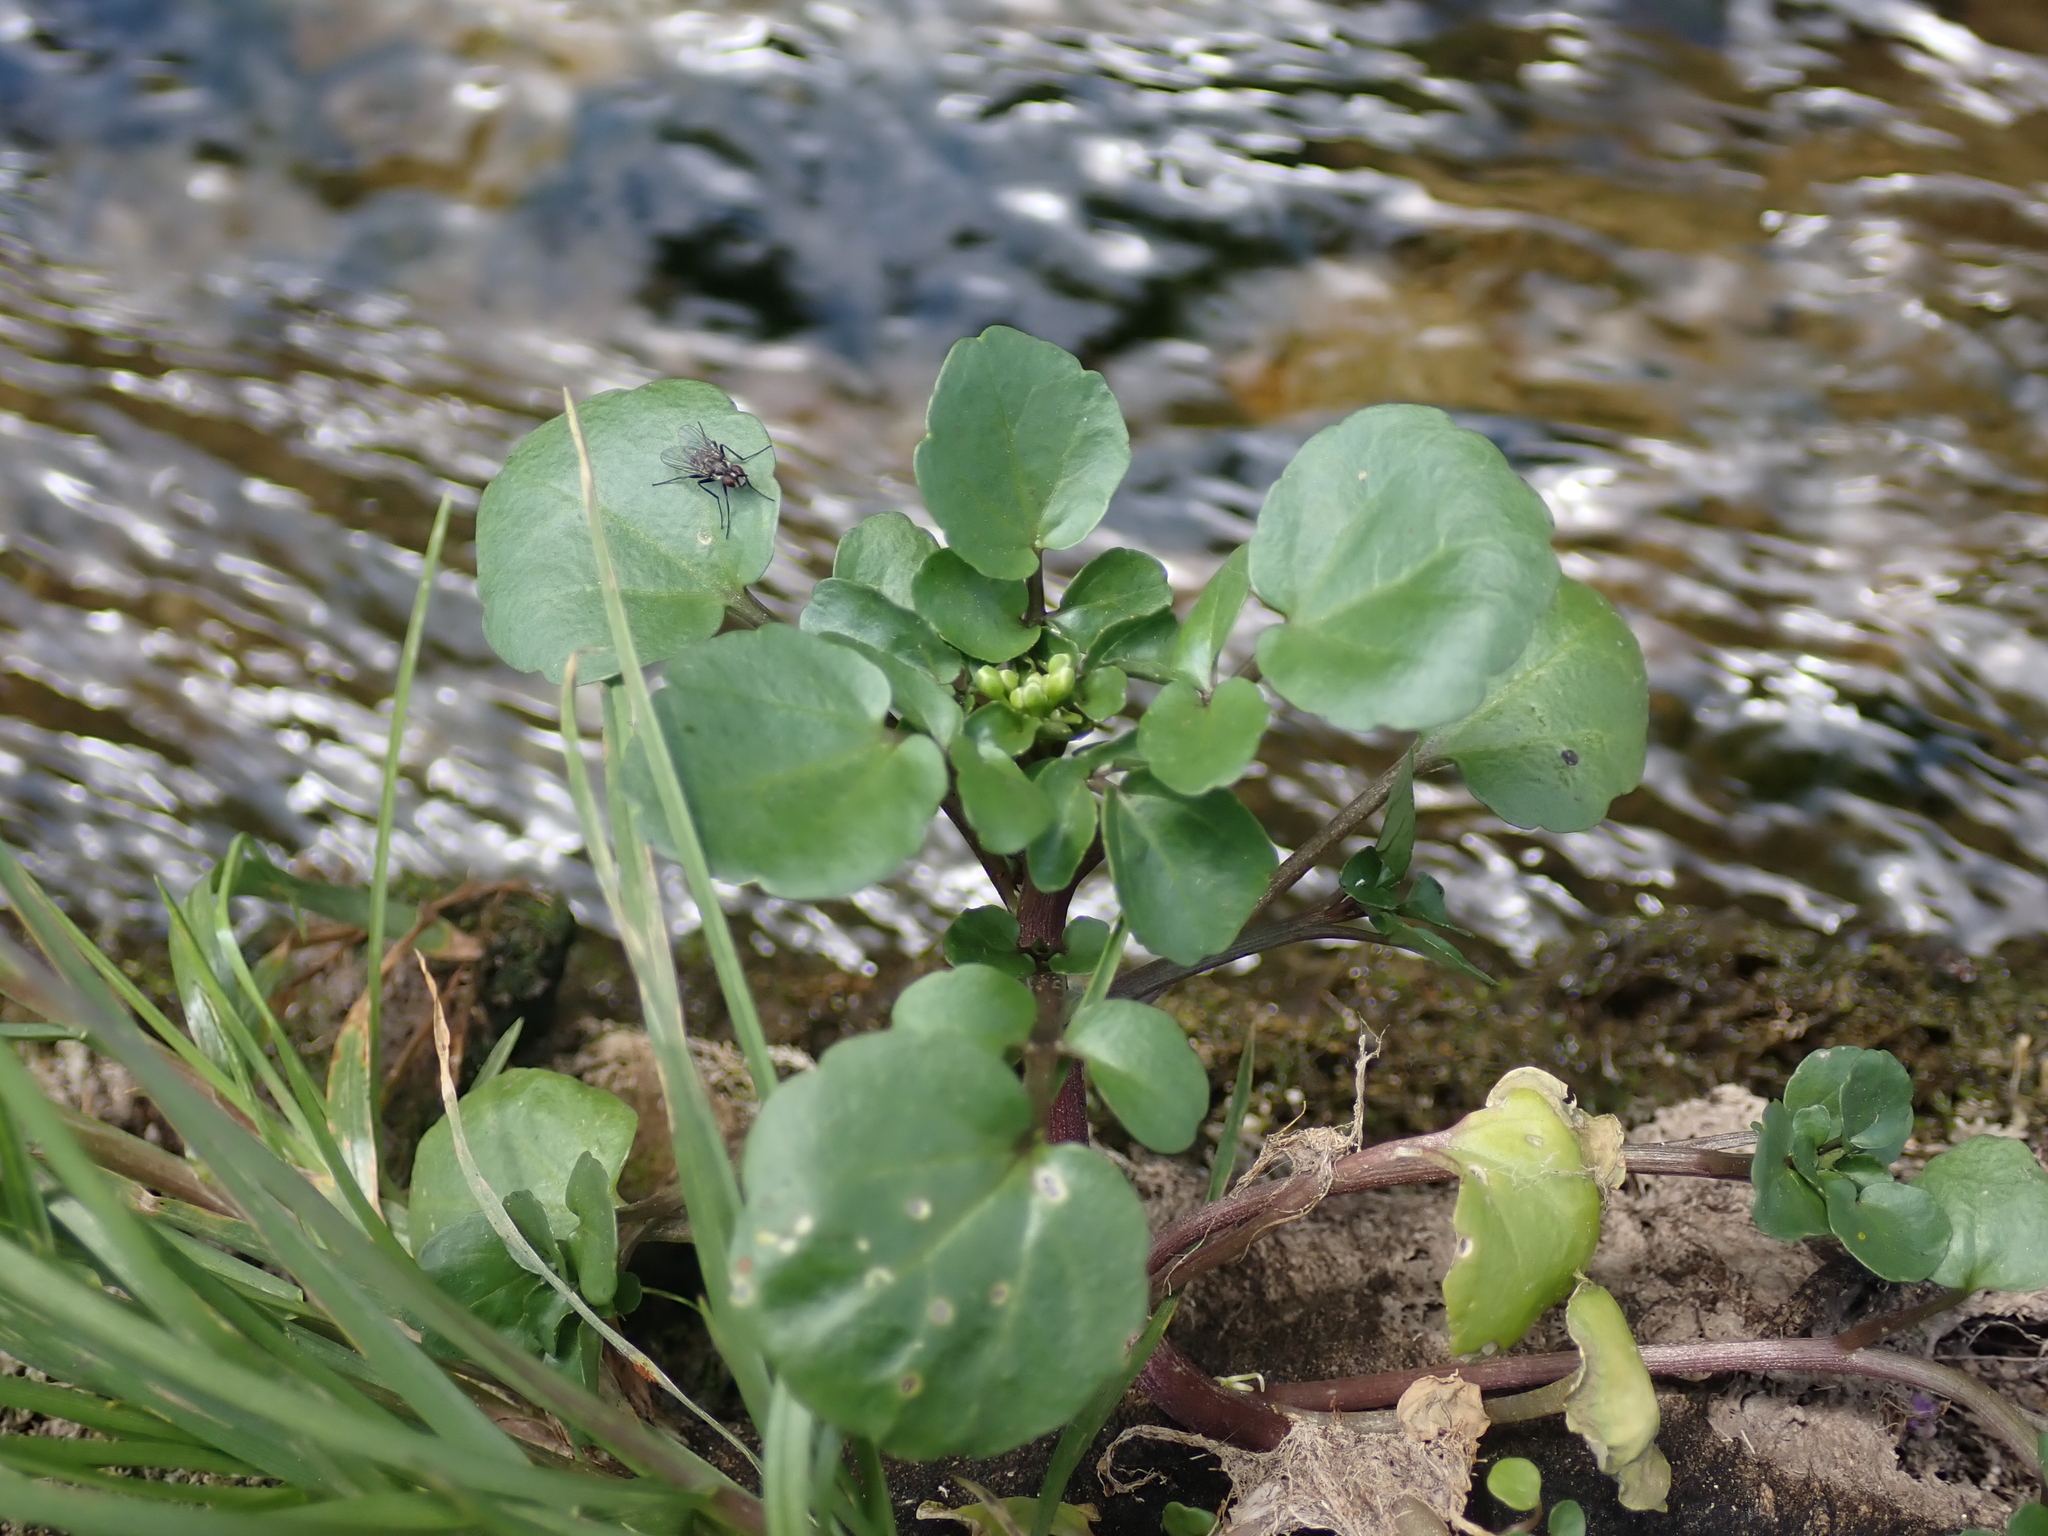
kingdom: Plantae
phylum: Tracheophyta
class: Magnoliopsida
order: Brassicales
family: Brassicaceae
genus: Nasturtium
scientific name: Nasturtium officinale
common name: Watercress
